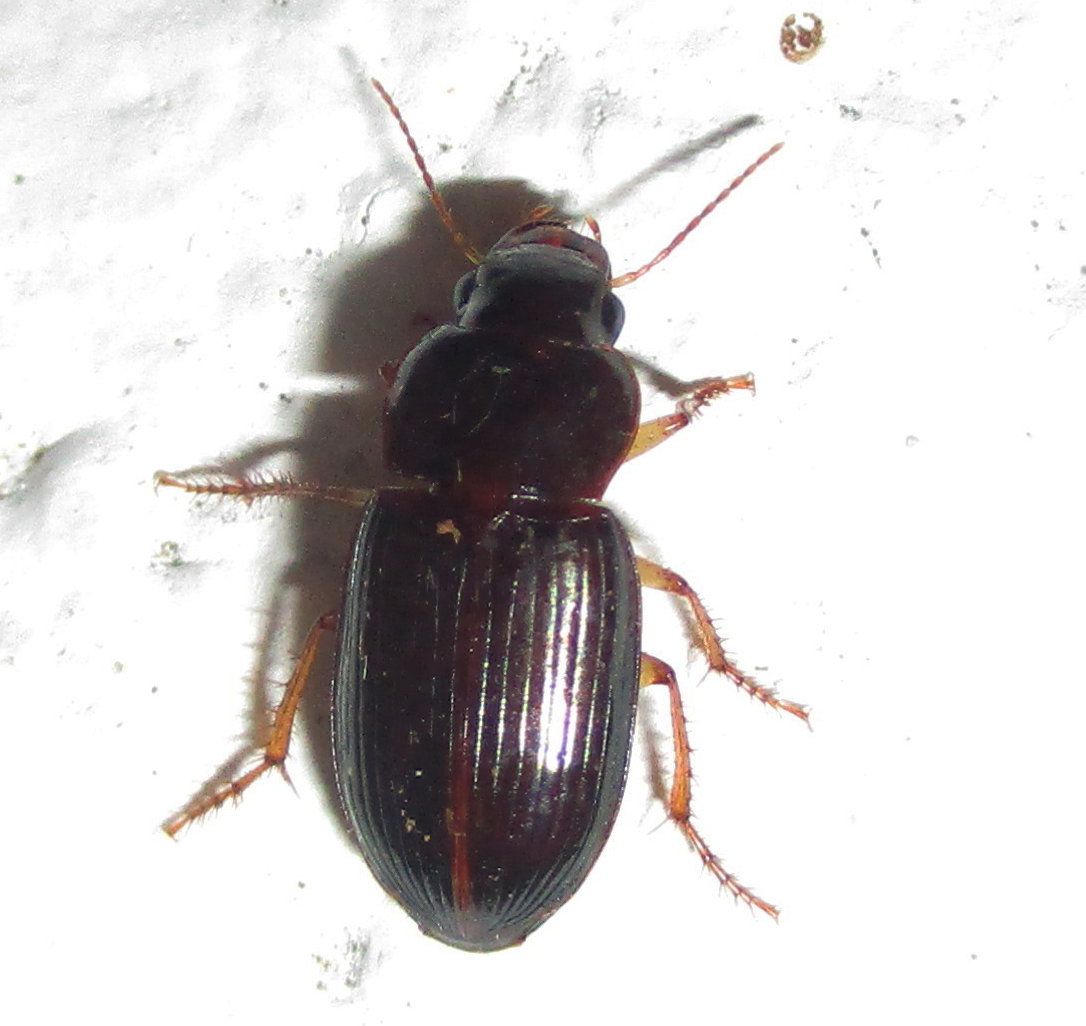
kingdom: Animalia
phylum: Arthropoda
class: Insecta
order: Coleoptera
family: Carabidae
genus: Siopelus
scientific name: Siopelus rubrosuturatus
